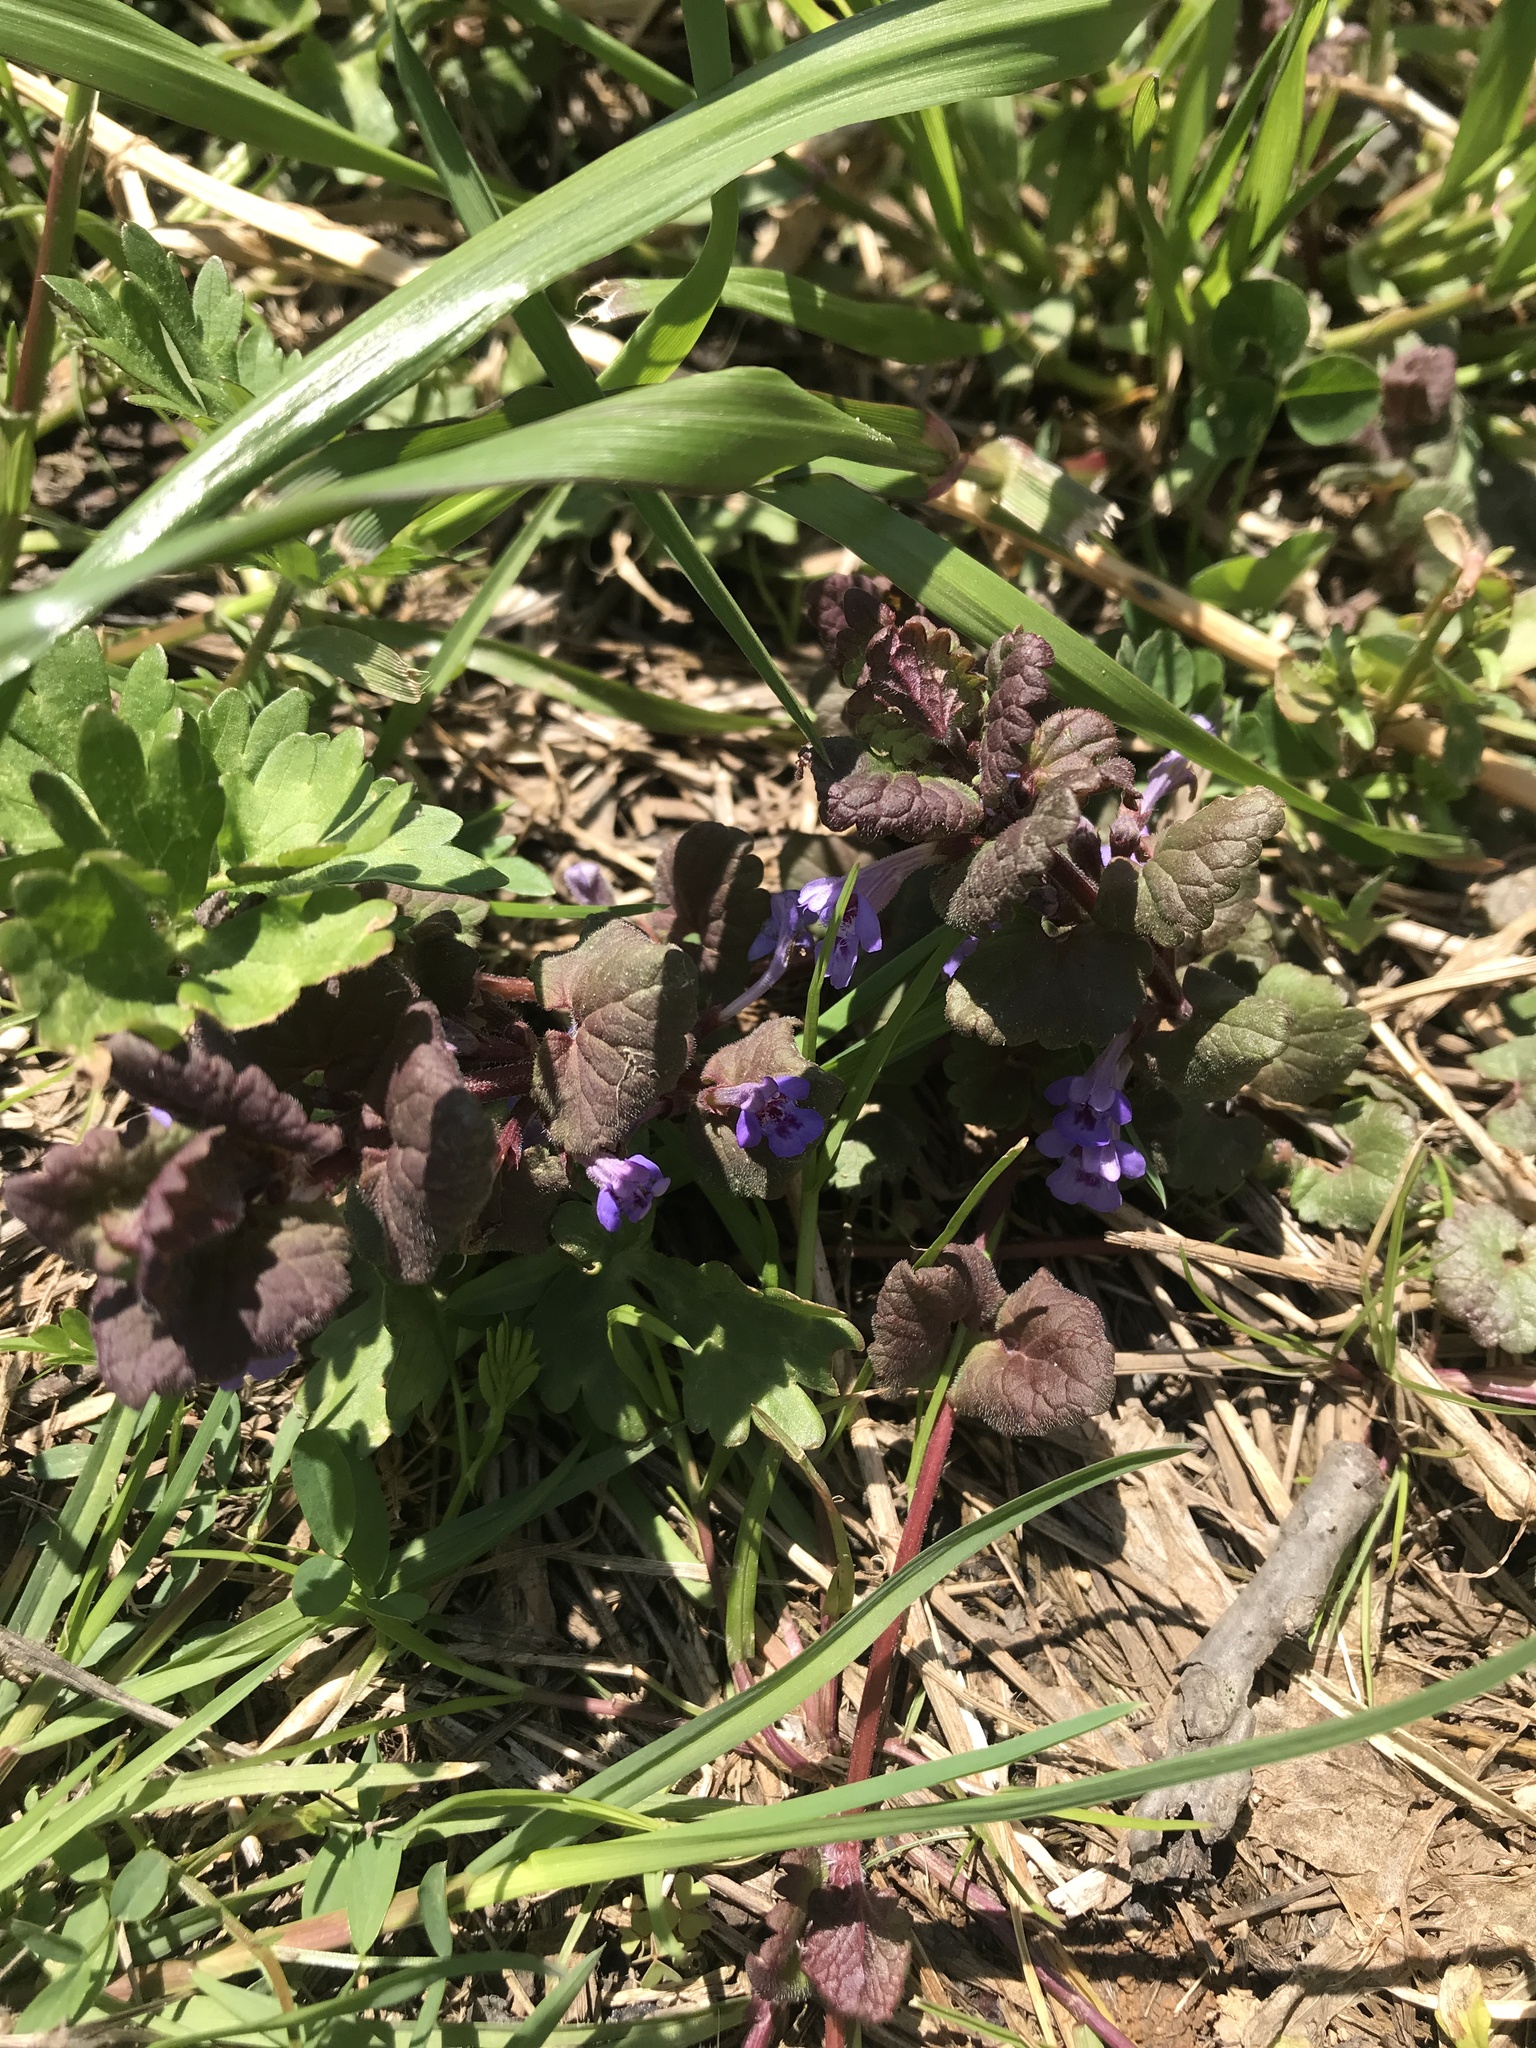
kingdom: Plantae
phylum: Tracheophyta
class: Magnoliopsida
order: Lamiales
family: Lamiaceae
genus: Glechoma
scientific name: Glechoma hederacea
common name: Ground ivy
